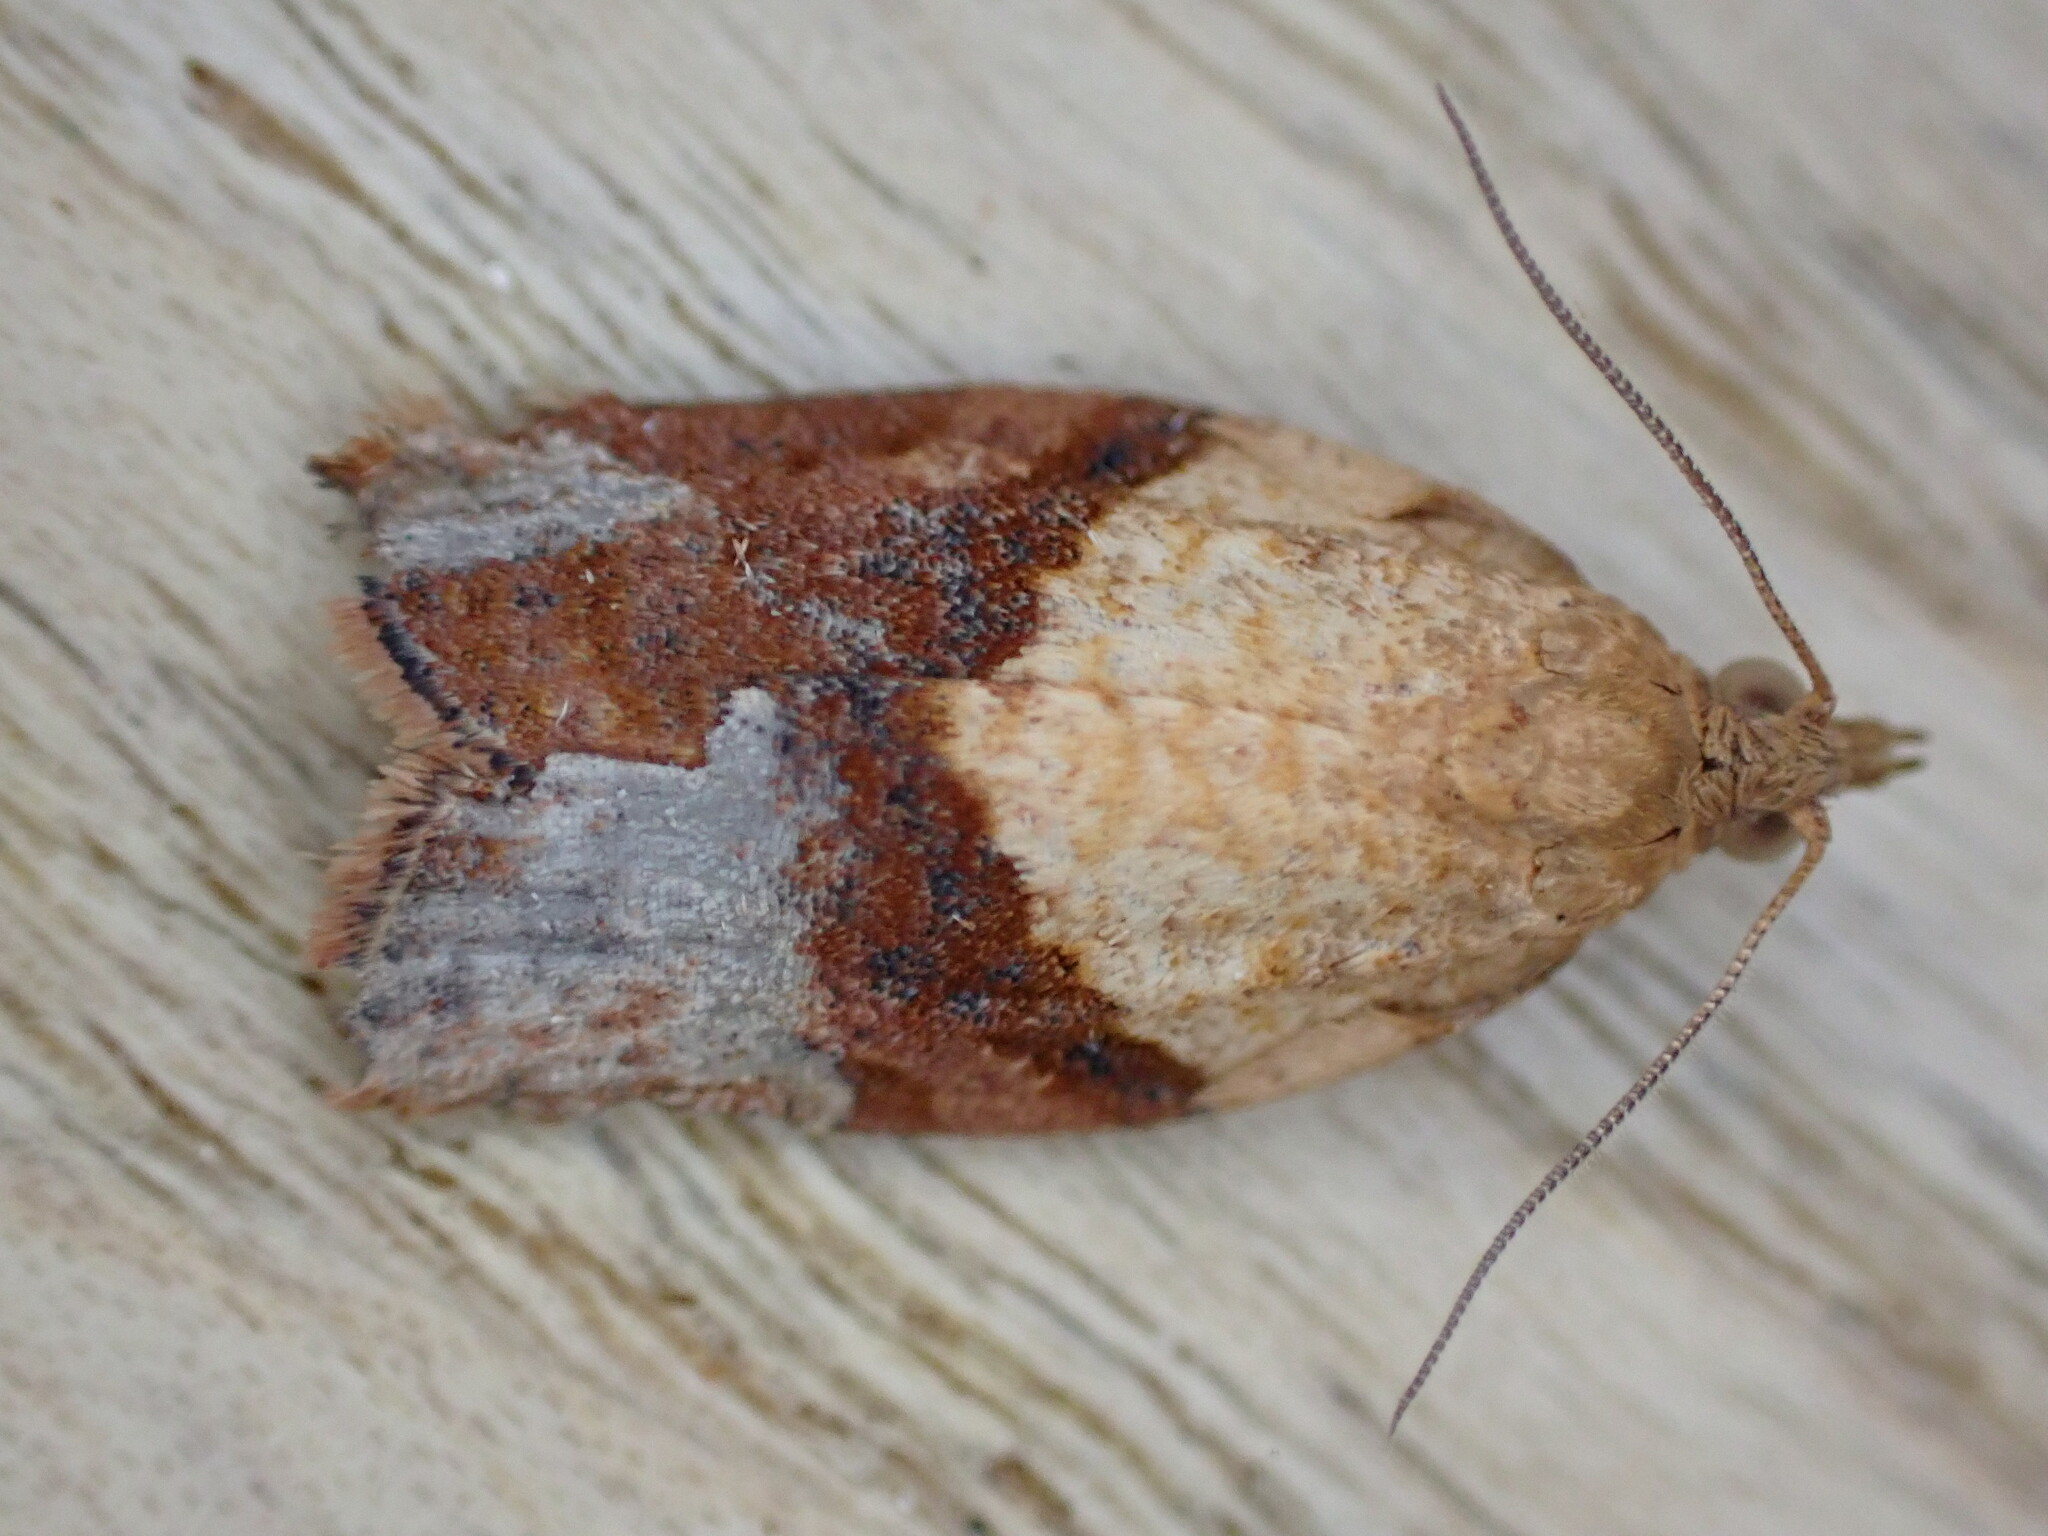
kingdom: Animalia
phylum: Arthropoda
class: Insecta
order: Lepidoptera
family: Tortricidae
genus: Epiphyas
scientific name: Epiphyas postvittana
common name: Light brown apple moth
